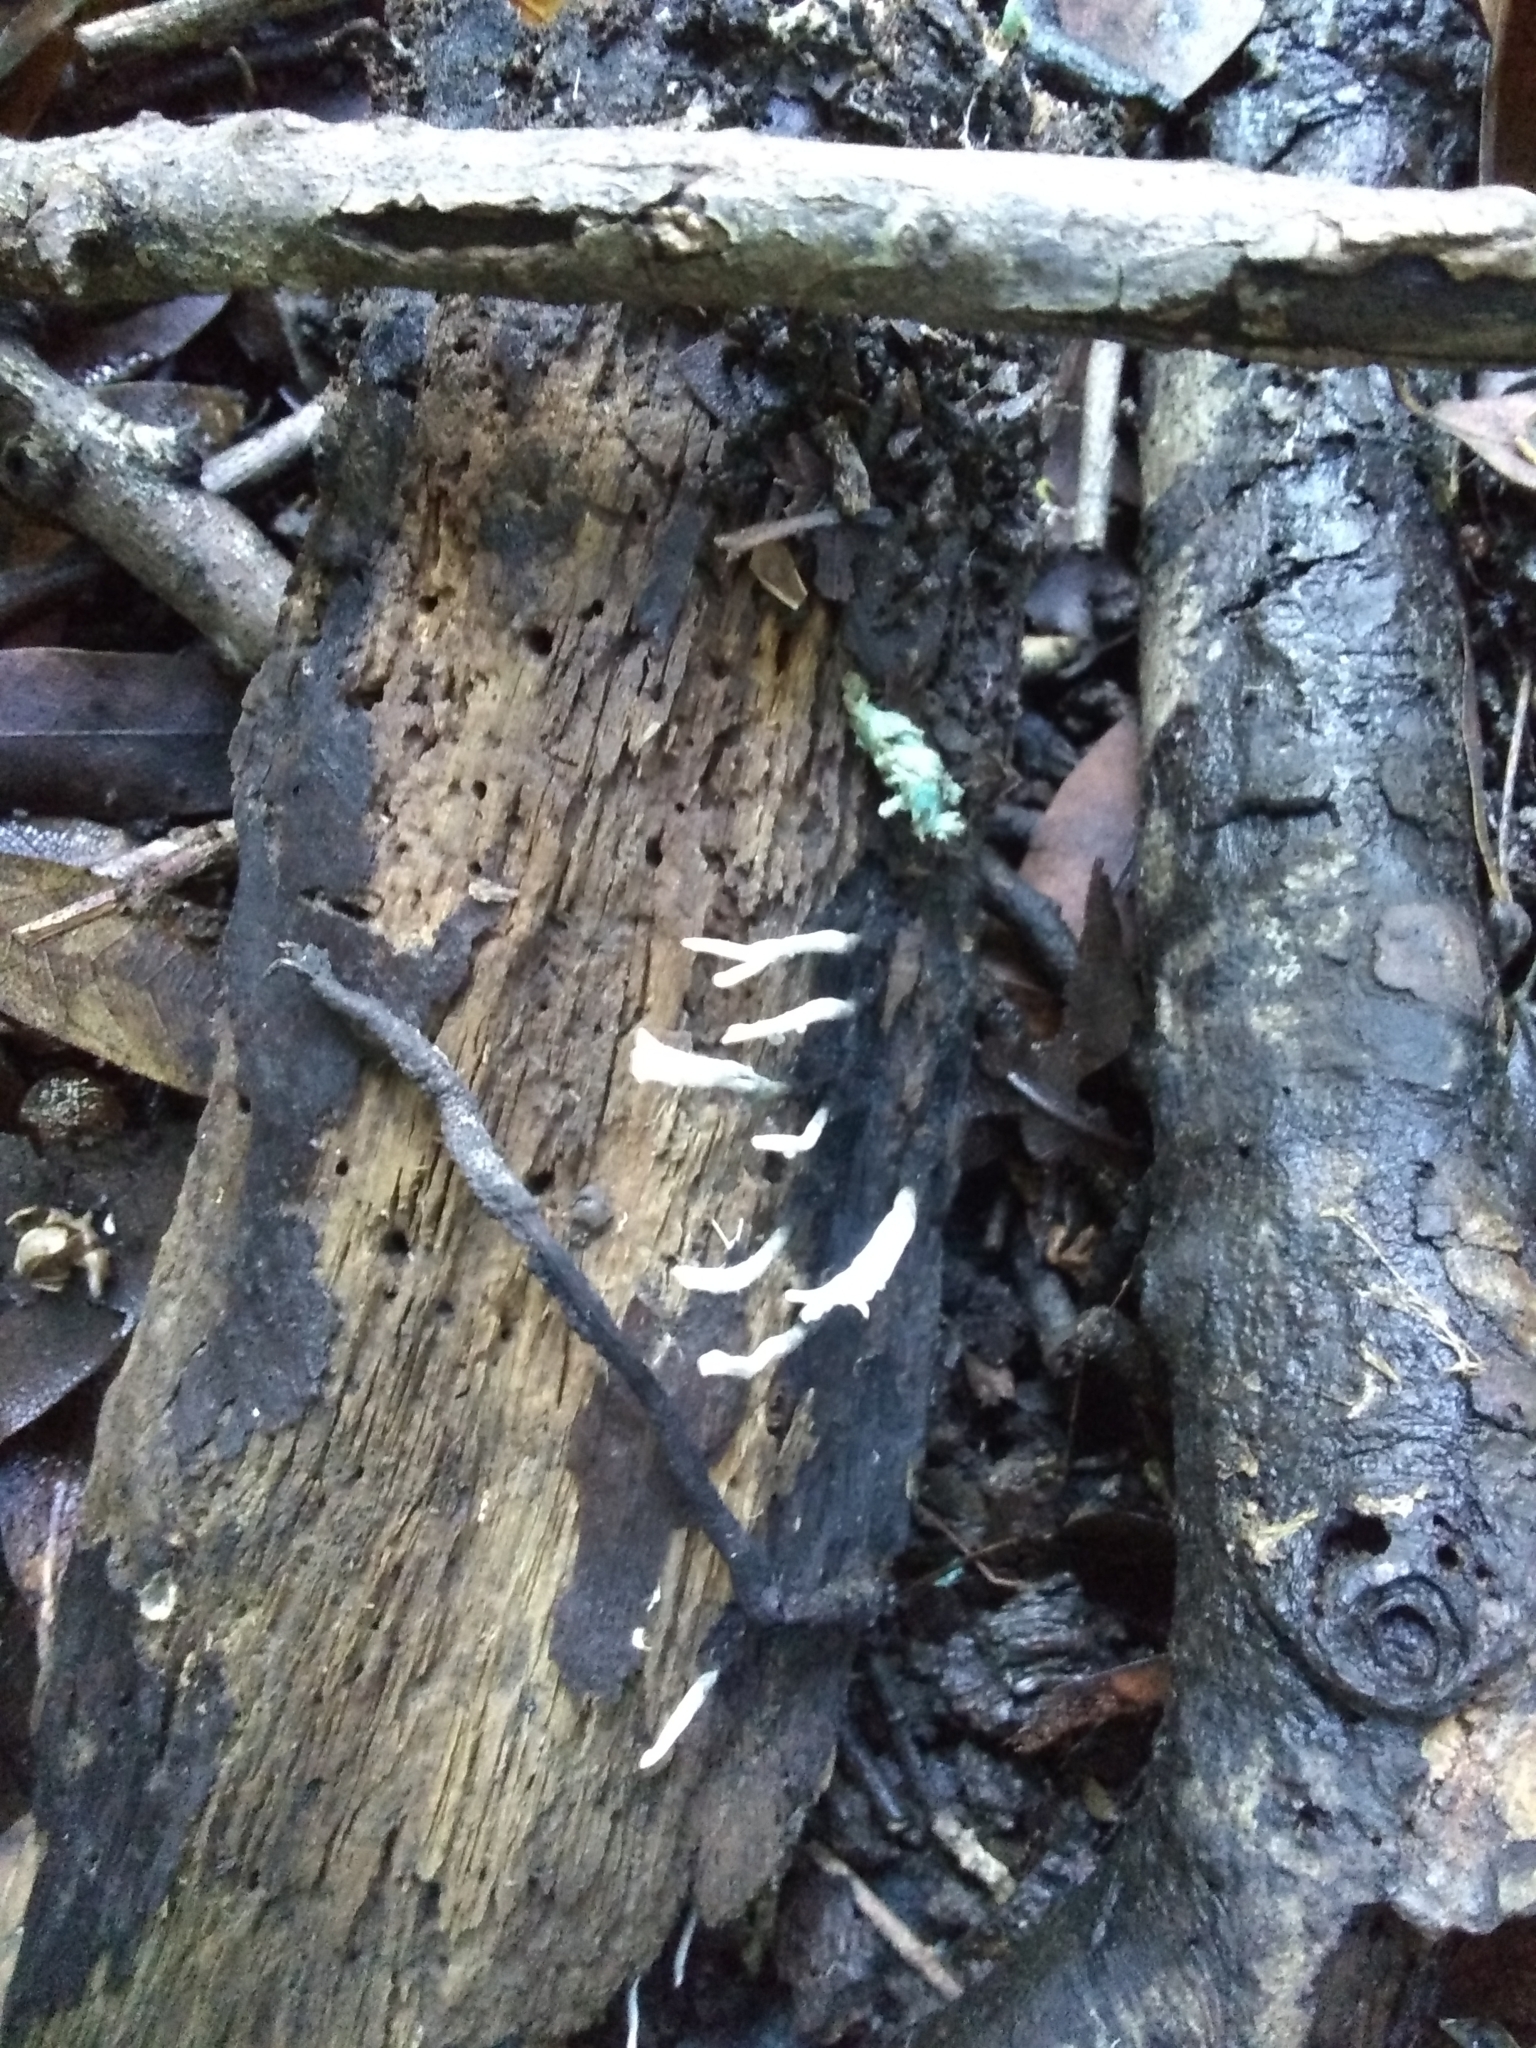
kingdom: Fungi
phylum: Ascomycota
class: Sordariomycetes
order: Xylariales
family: Xylariaceae
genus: Xylaria
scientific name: Xylaria hypoxylon
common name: Candle-snuff fungus
